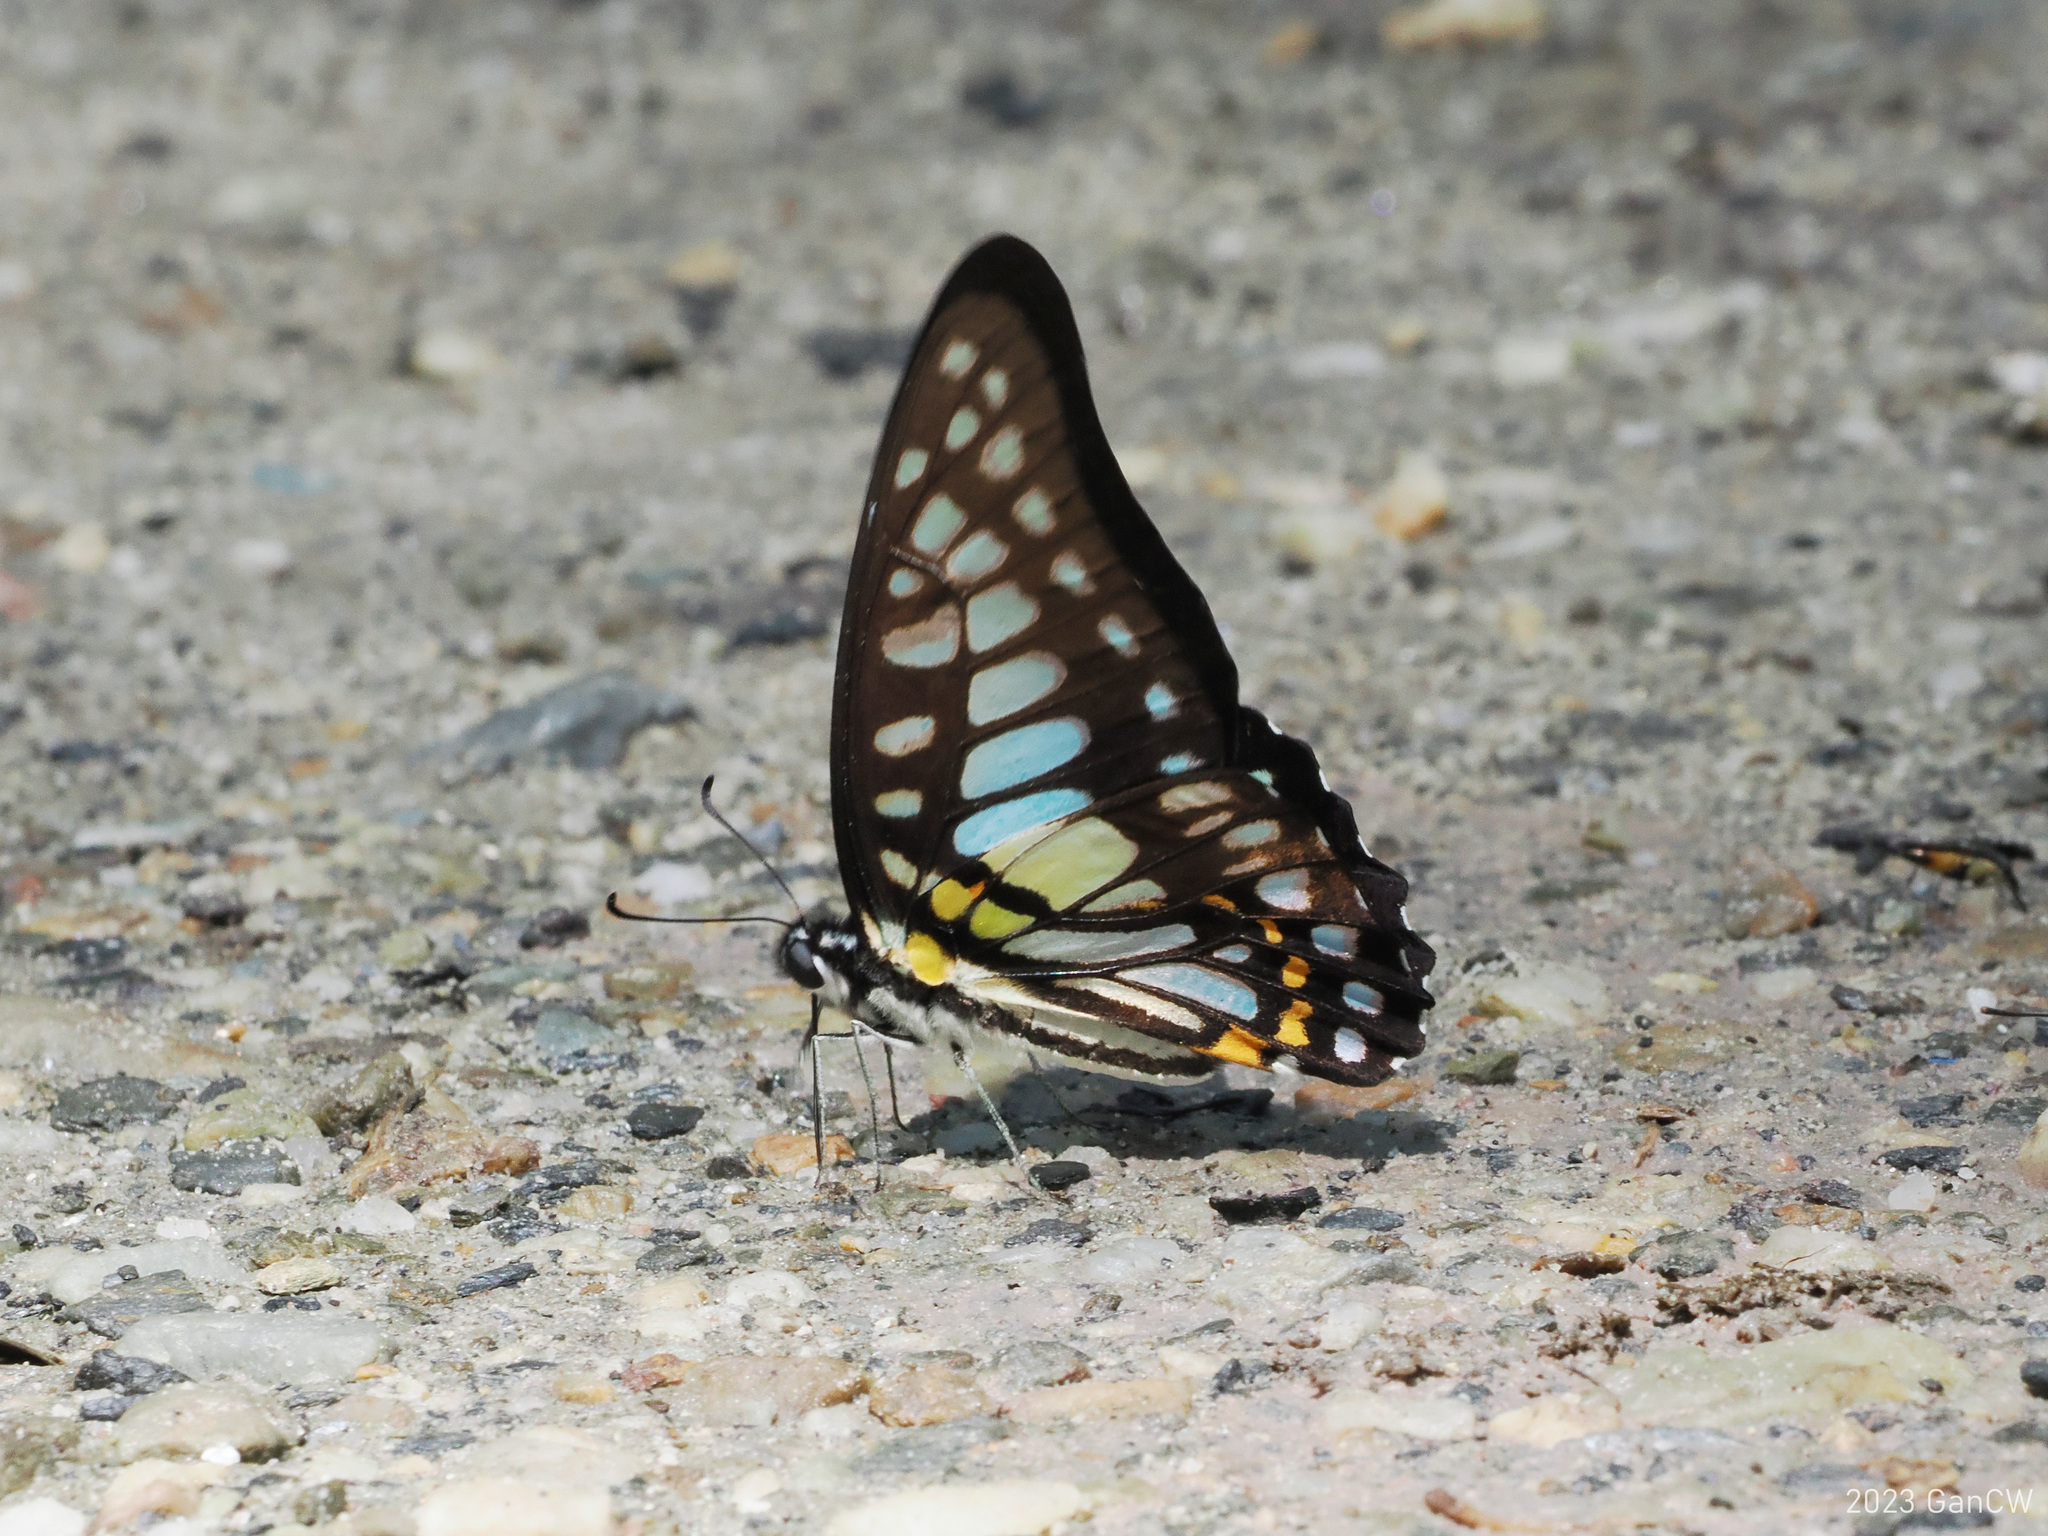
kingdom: Animalia
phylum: Arthropoda
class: Insecta
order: Lepidoptera
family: Papilionidae
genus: Graphium
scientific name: Graphium chironides
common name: Veined jay
